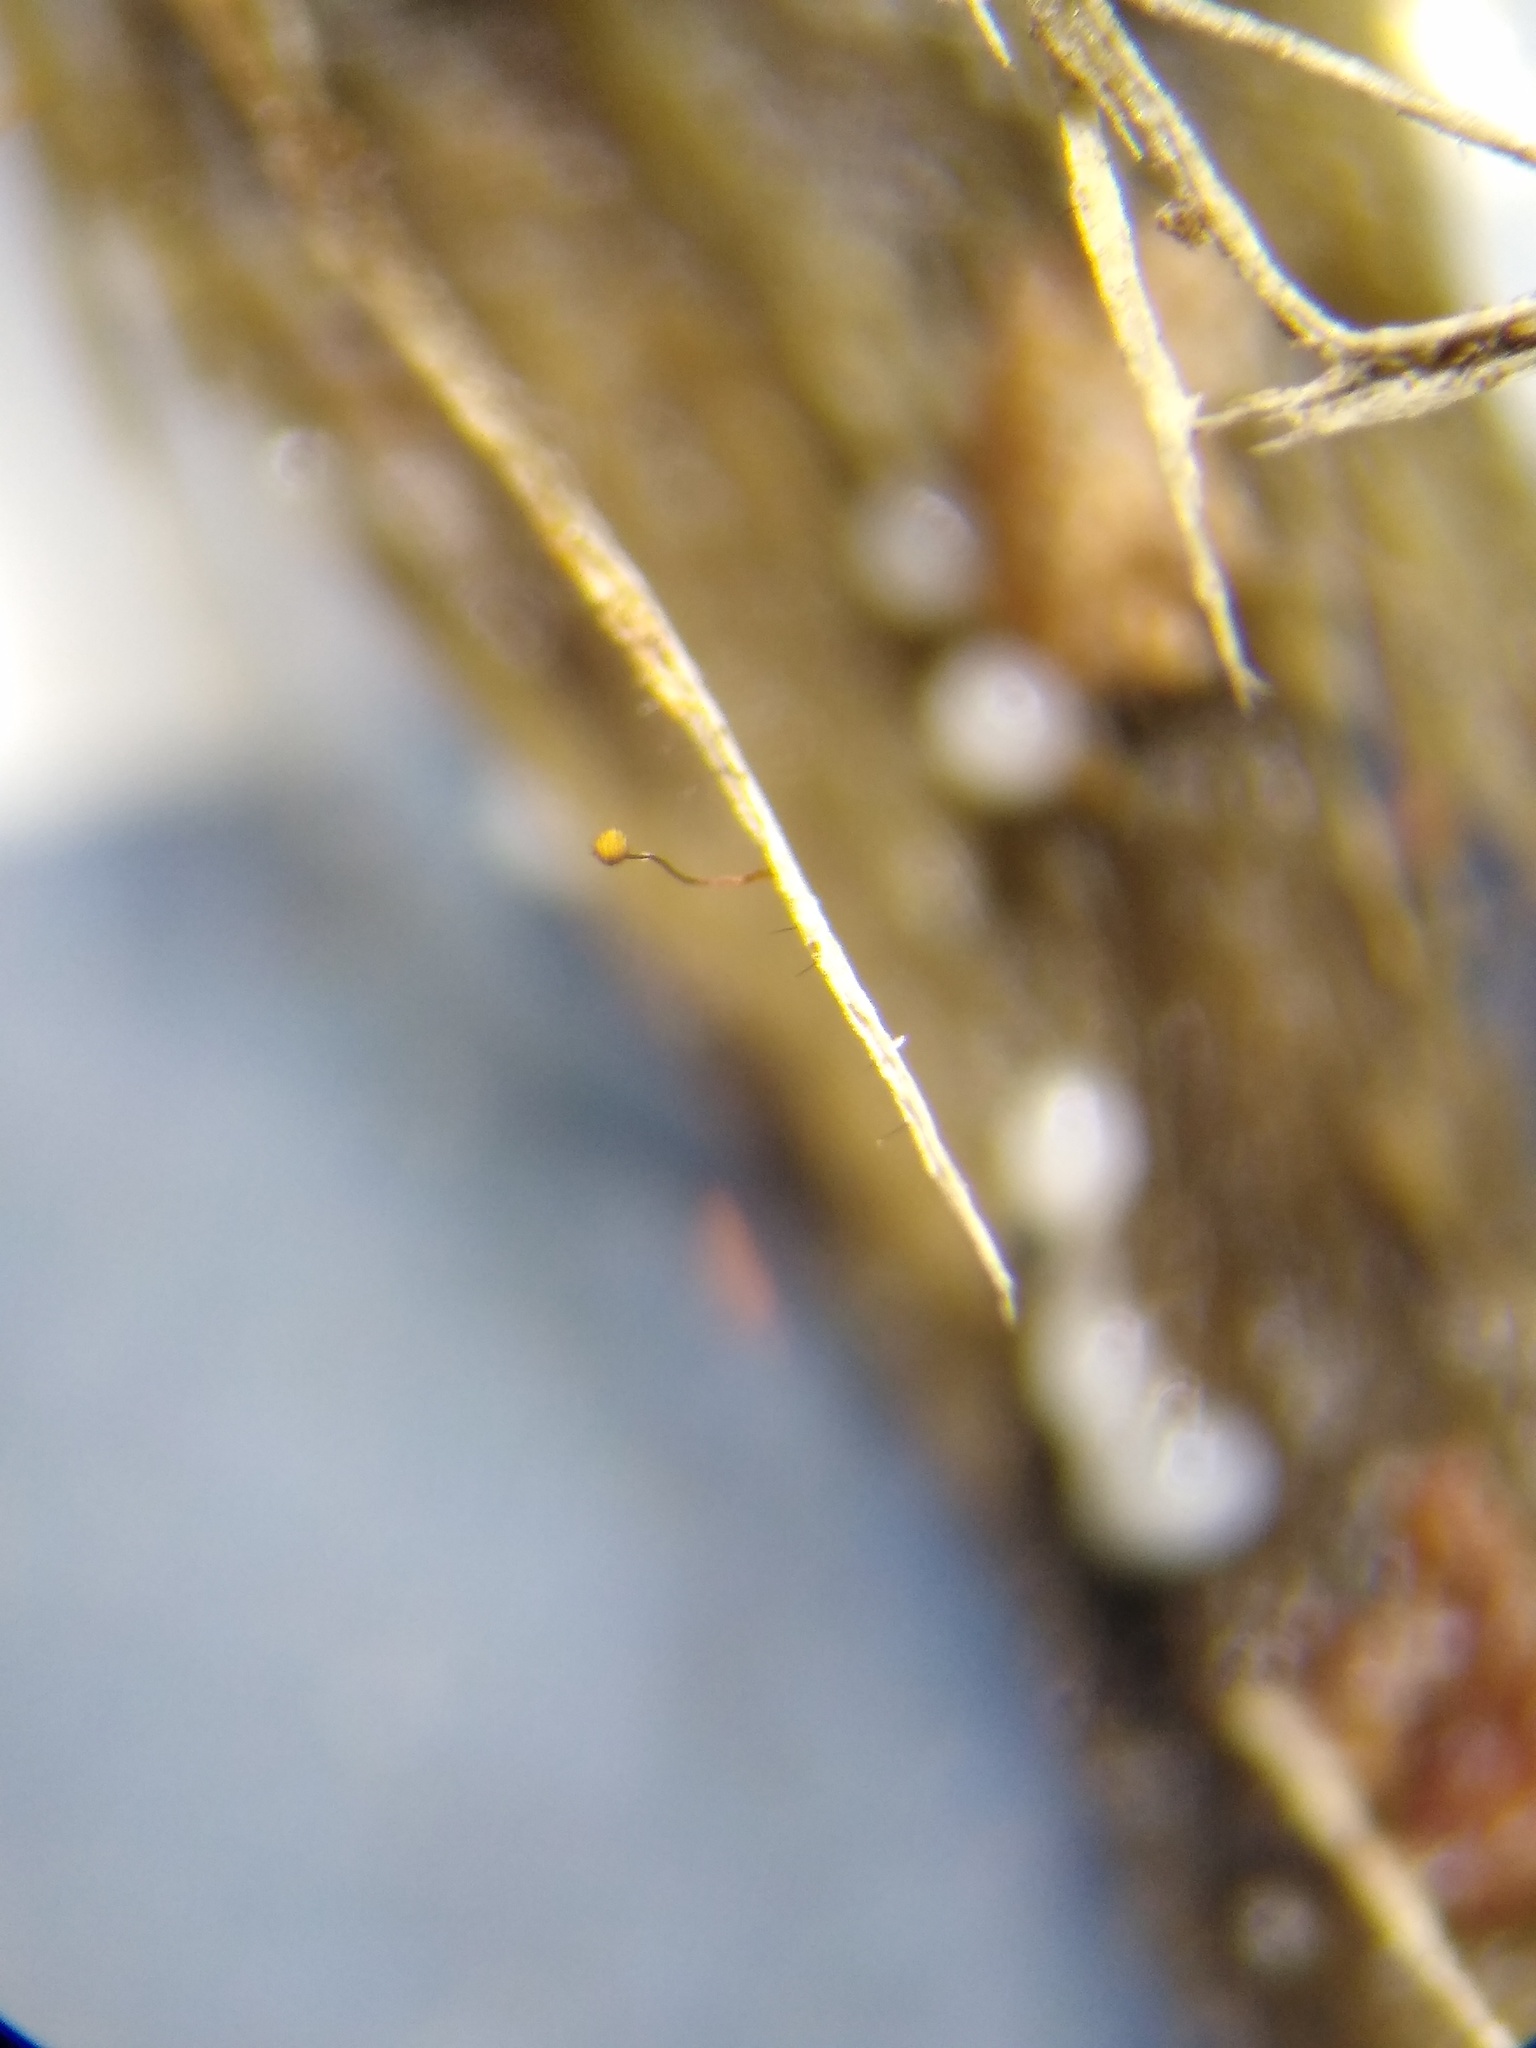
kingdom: Protozoa
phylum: Mycetozoa
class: Myxomycetes
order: Cribrariales
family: Cribrariaceae
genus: Cribraria
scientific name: Cribraria microcarpa
